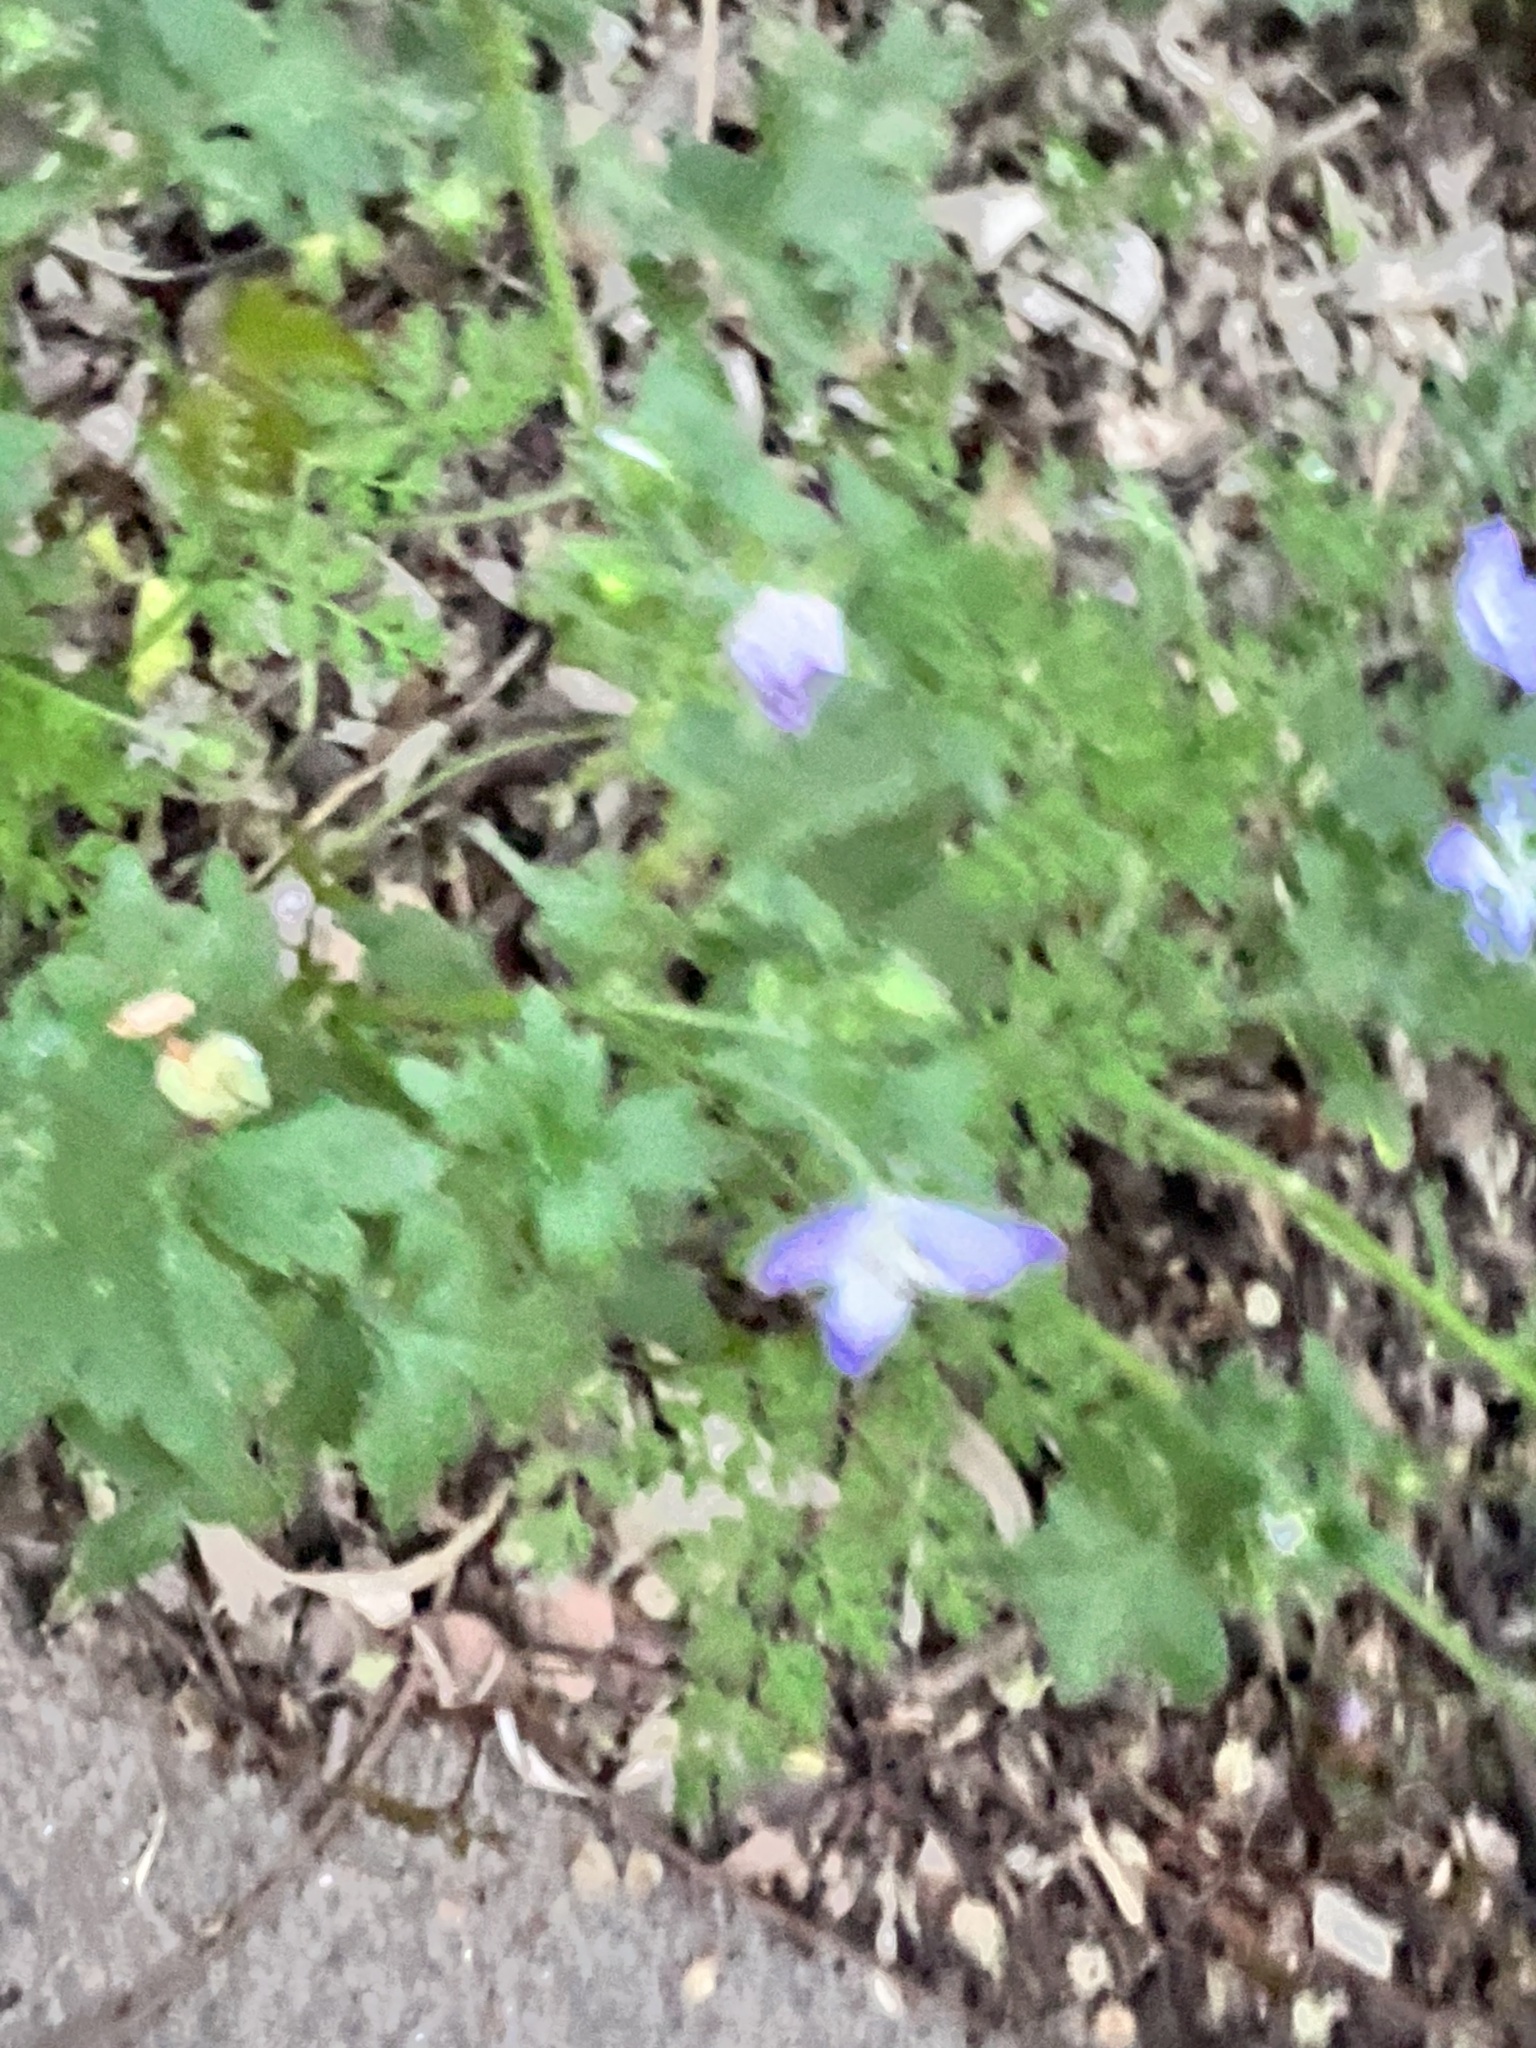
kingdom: Plantae
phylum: Tracheophyta
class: Magnoliopsida
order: Boraginales
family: Hydrophyllaceae
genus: Nemophila
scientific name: Nemophila phacelioides
